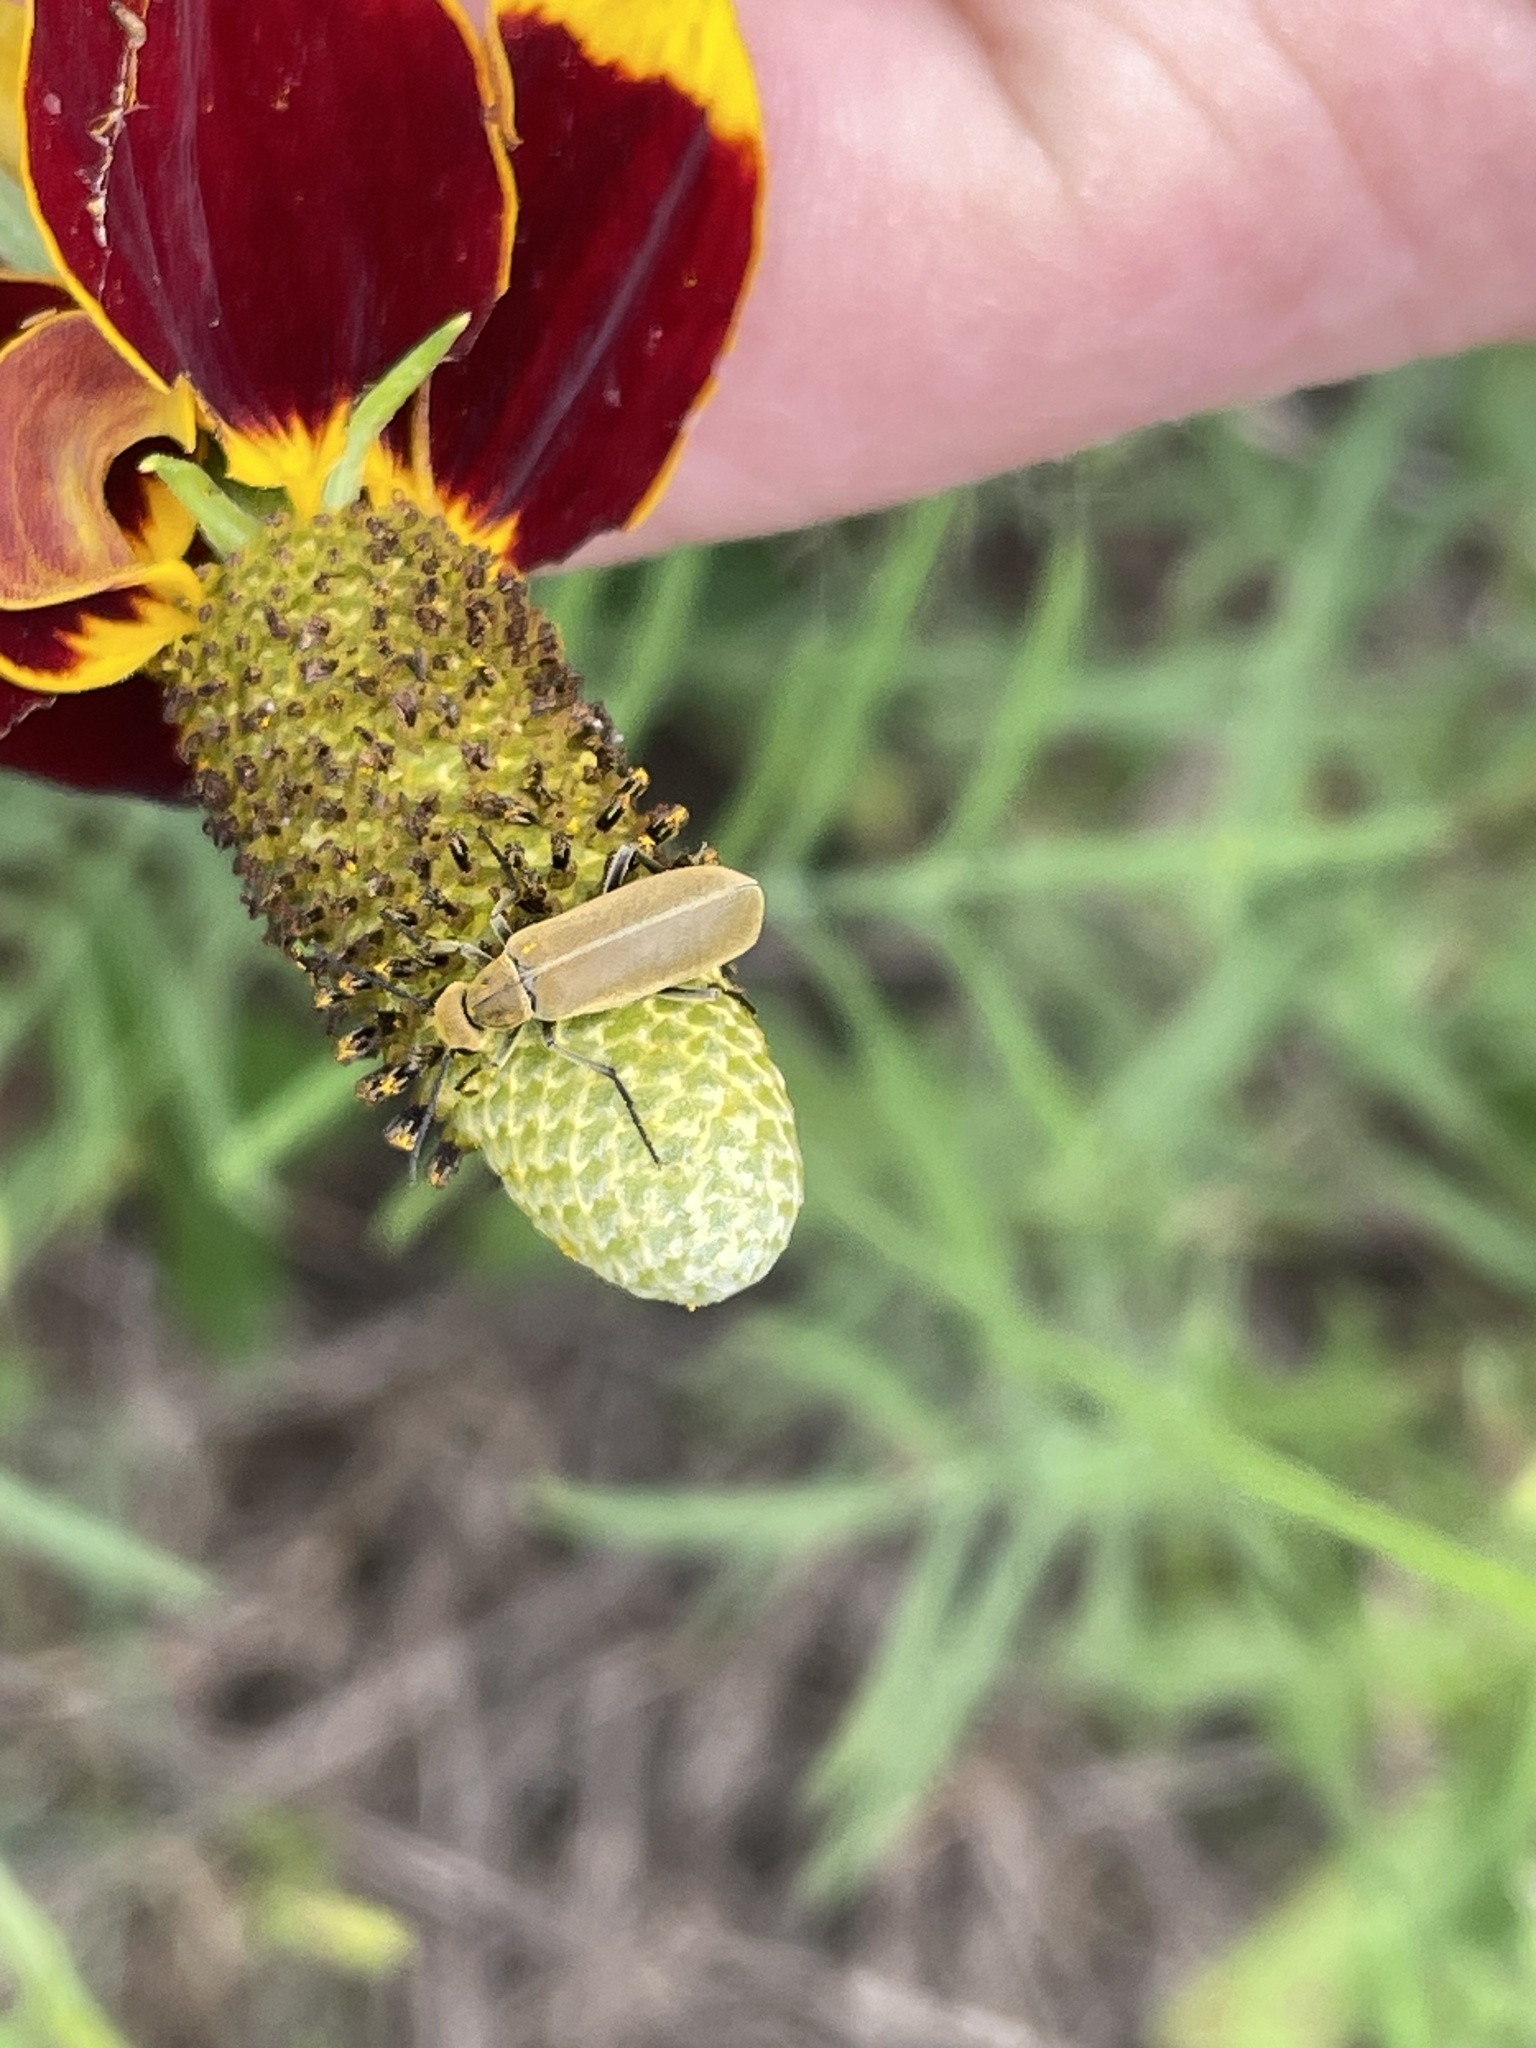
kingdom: Animalia
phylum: Arthropoda
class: Insecta
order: Coleoptera
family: Meloidae
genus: Epicauta
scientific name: Epicauta callosa
